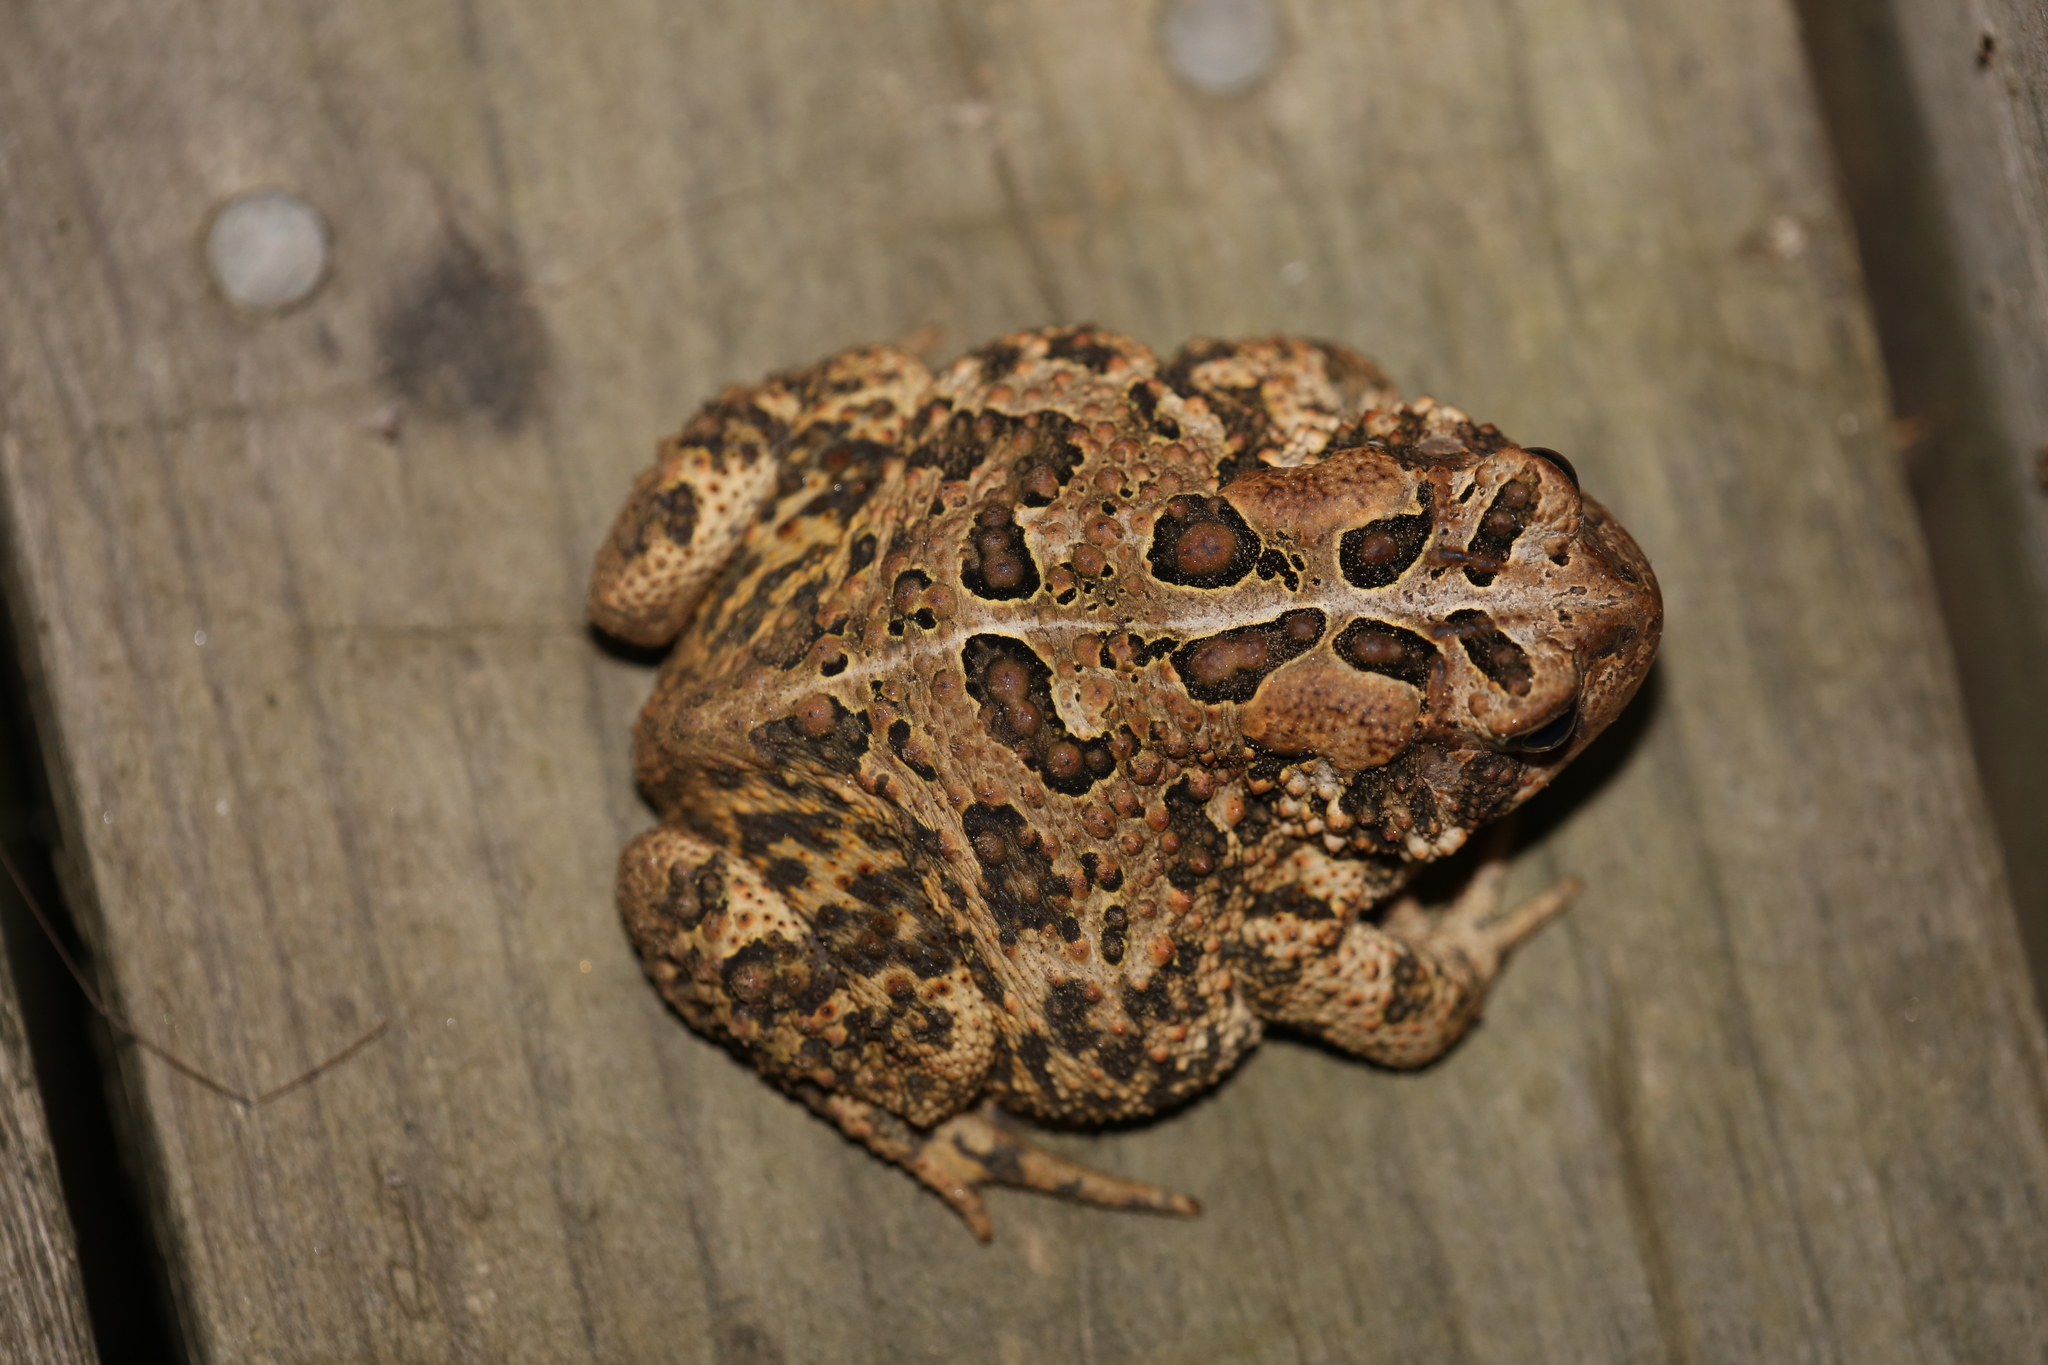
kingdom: Animalia
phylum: Chordata
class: Amphibia
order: Anura
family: Bufonidae
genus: Anaxyrus
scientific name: Anaxyrus americanus
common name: American toad
